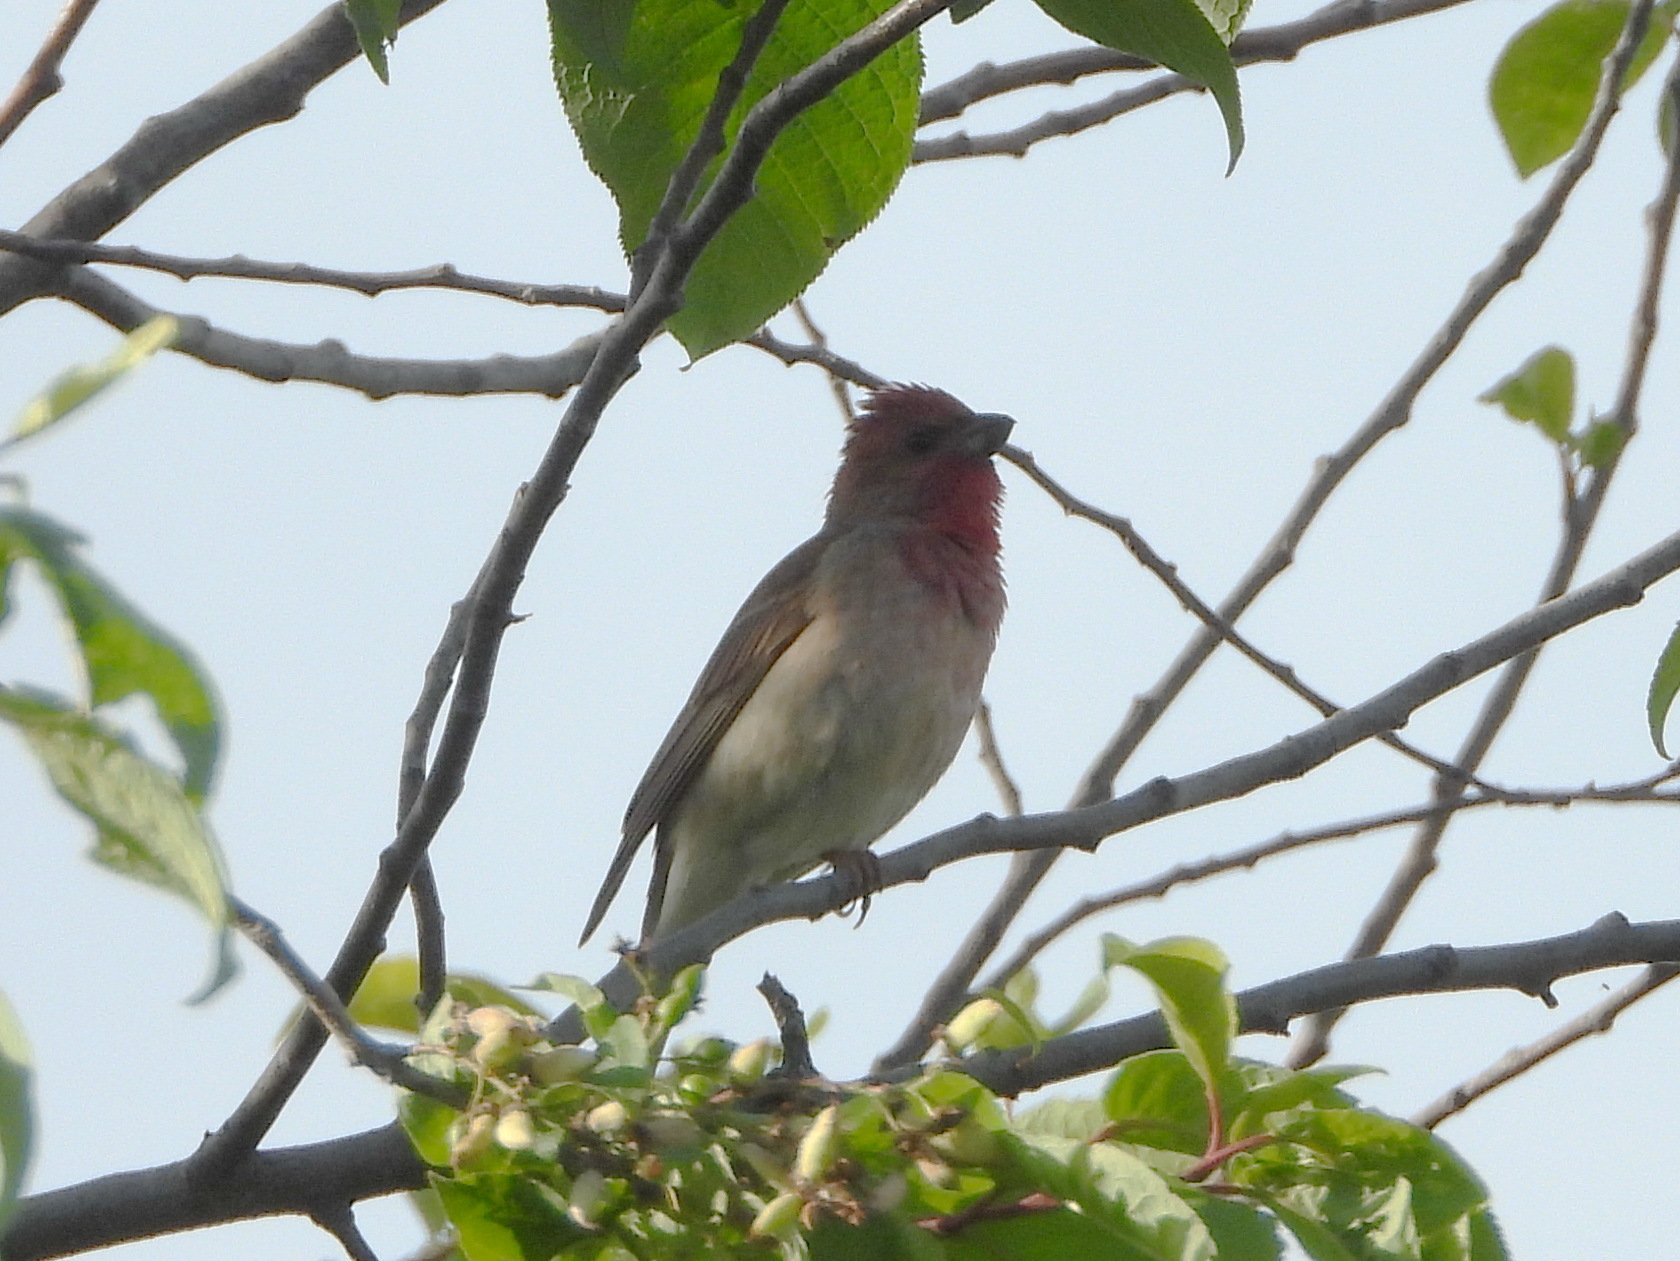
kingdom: Animalia
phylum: Chordata
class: Aves
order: Passeriformes
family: Fringillidae
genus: Carpodacus
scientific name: Carpodacus erythrinus
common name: Common rosefinch
